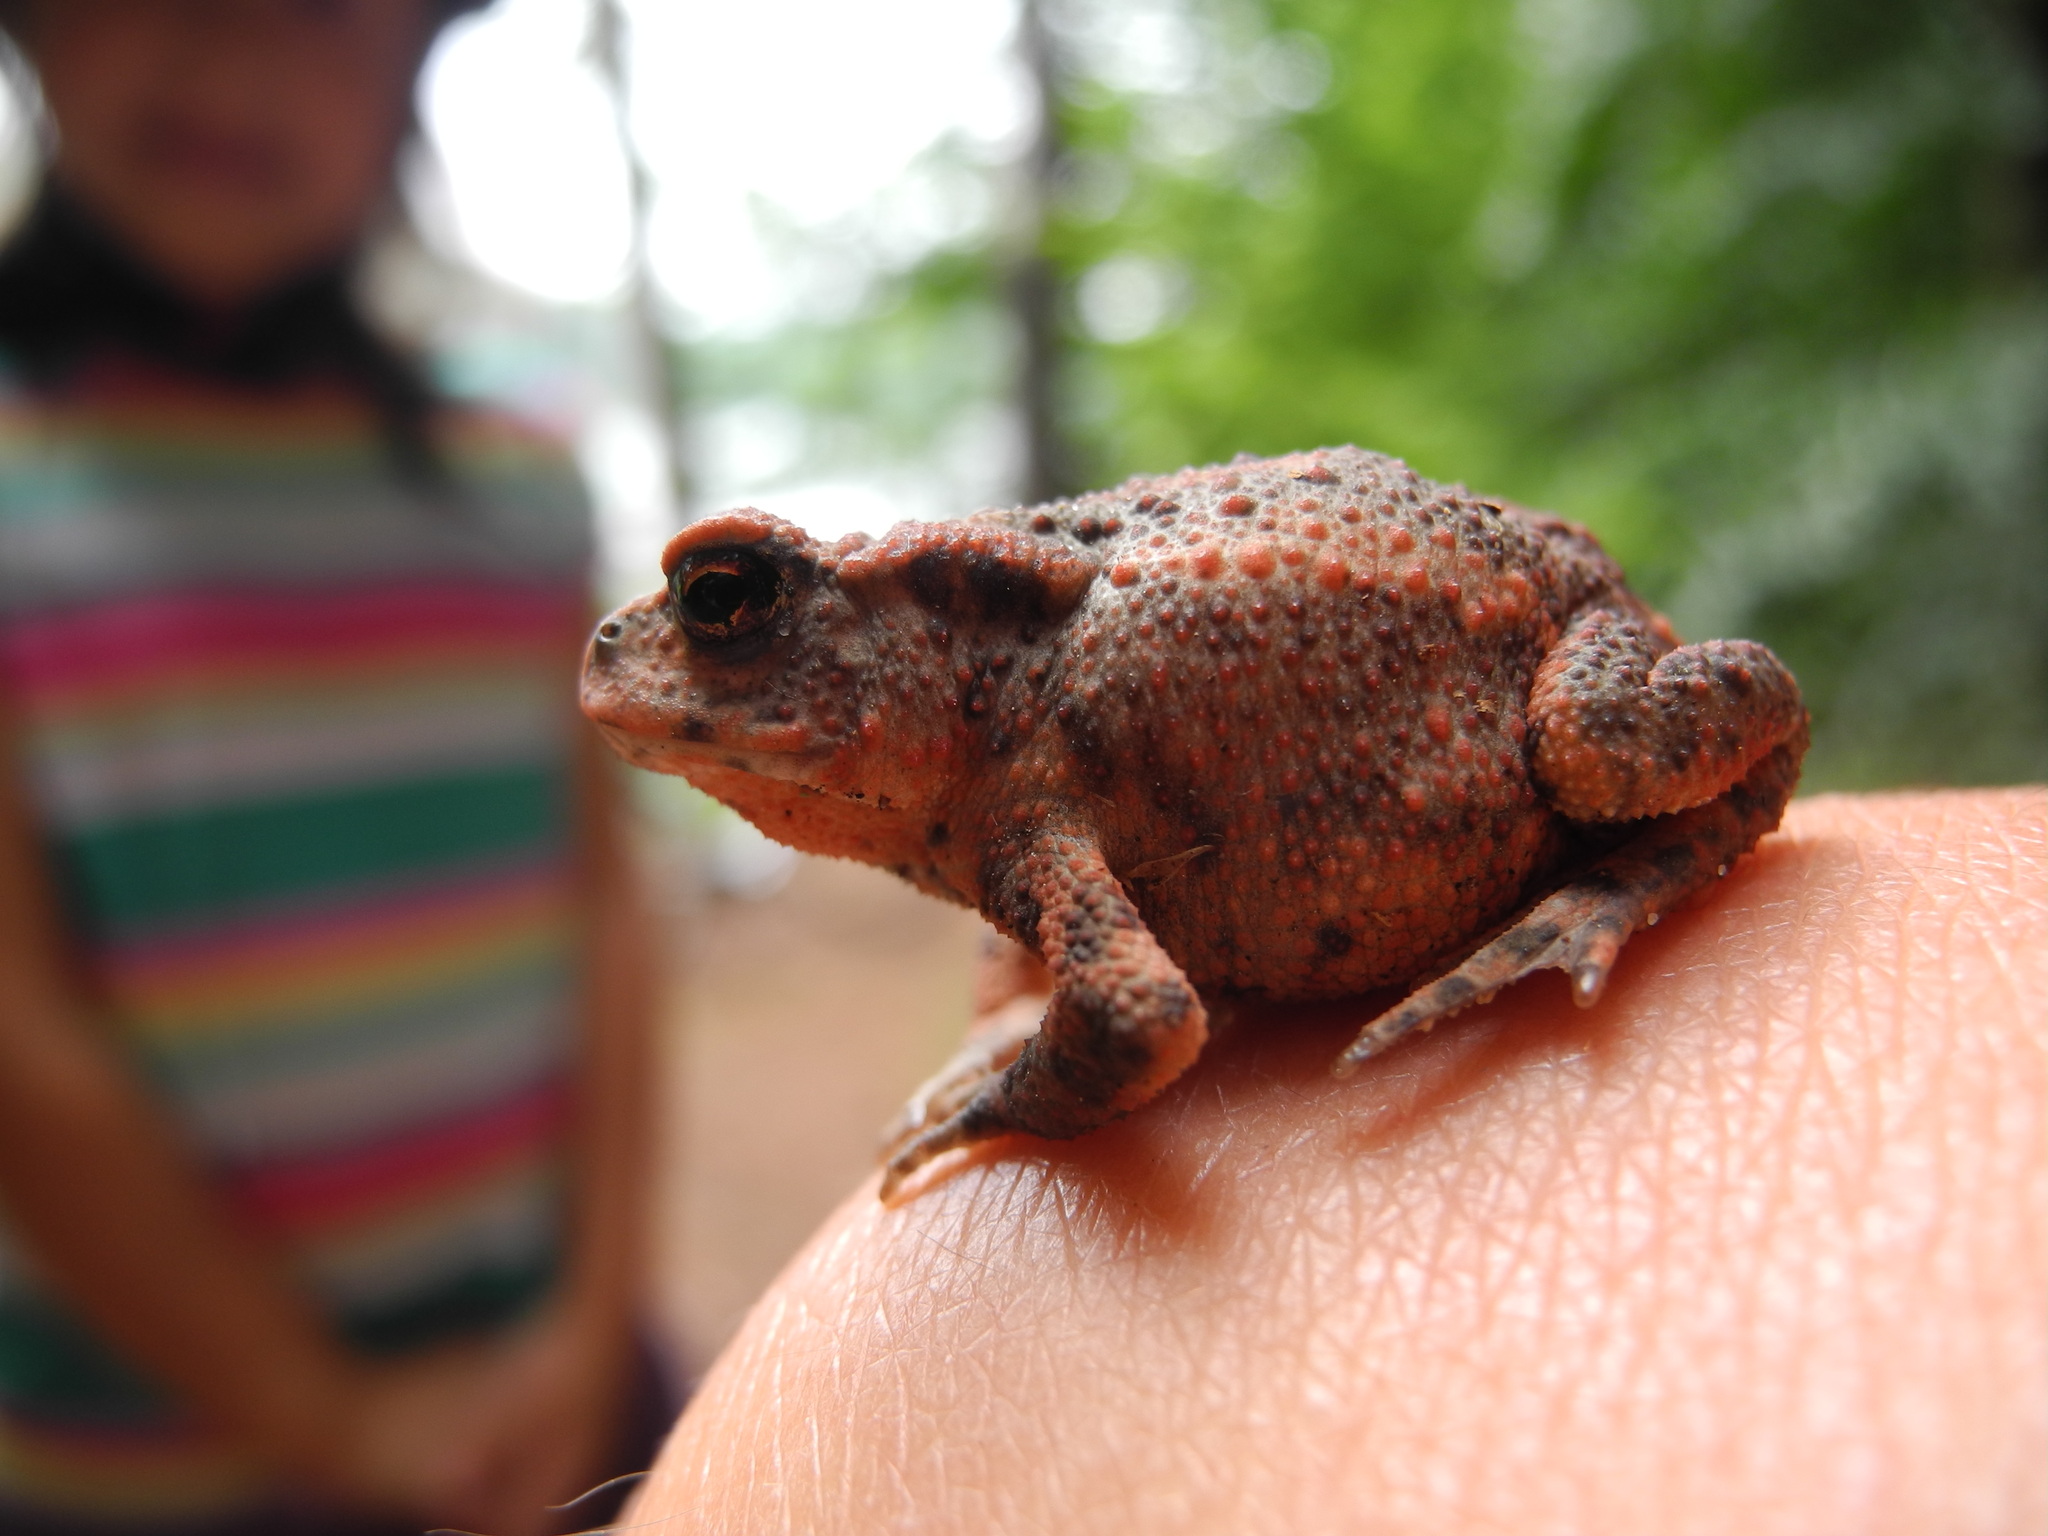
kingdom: Animalia
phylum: Chordata
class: Amphibia
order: Anura
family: Bufonidae
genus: Bufo
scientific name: Bufo bufo
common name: Common toad
